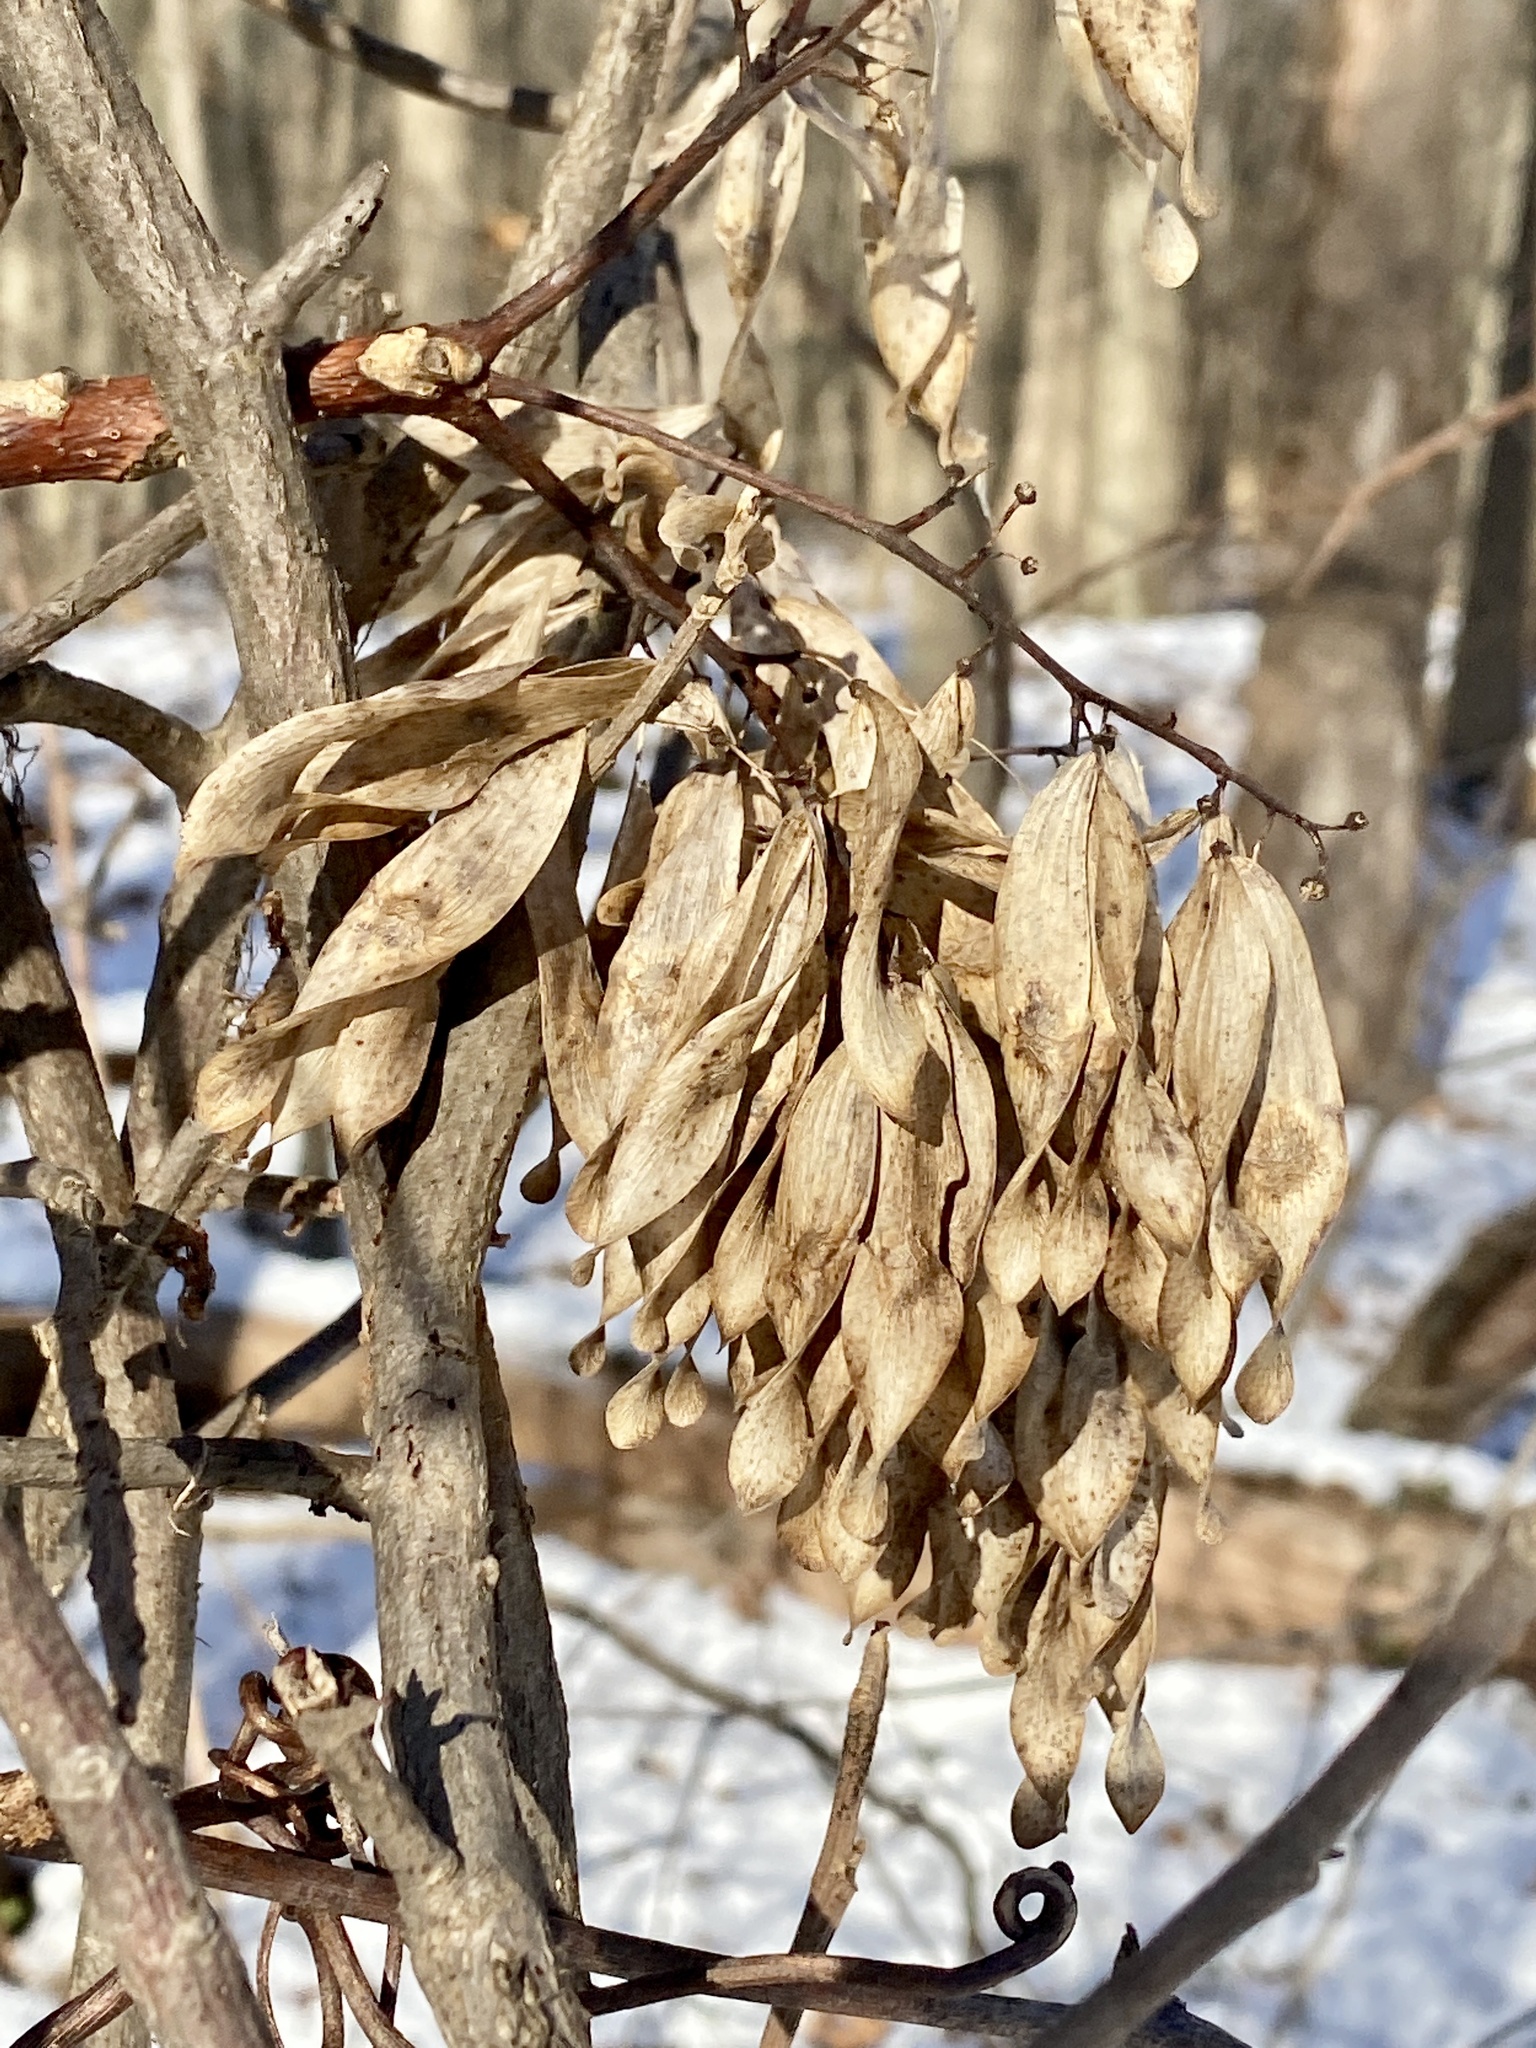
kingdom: Plantae
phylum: Tracheophyta
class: Magnoliopsida
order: Sapindales
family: Simaroubaceae
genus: Ailanthus
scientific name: Ailanthus altissima
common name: Tree-of-heaven
